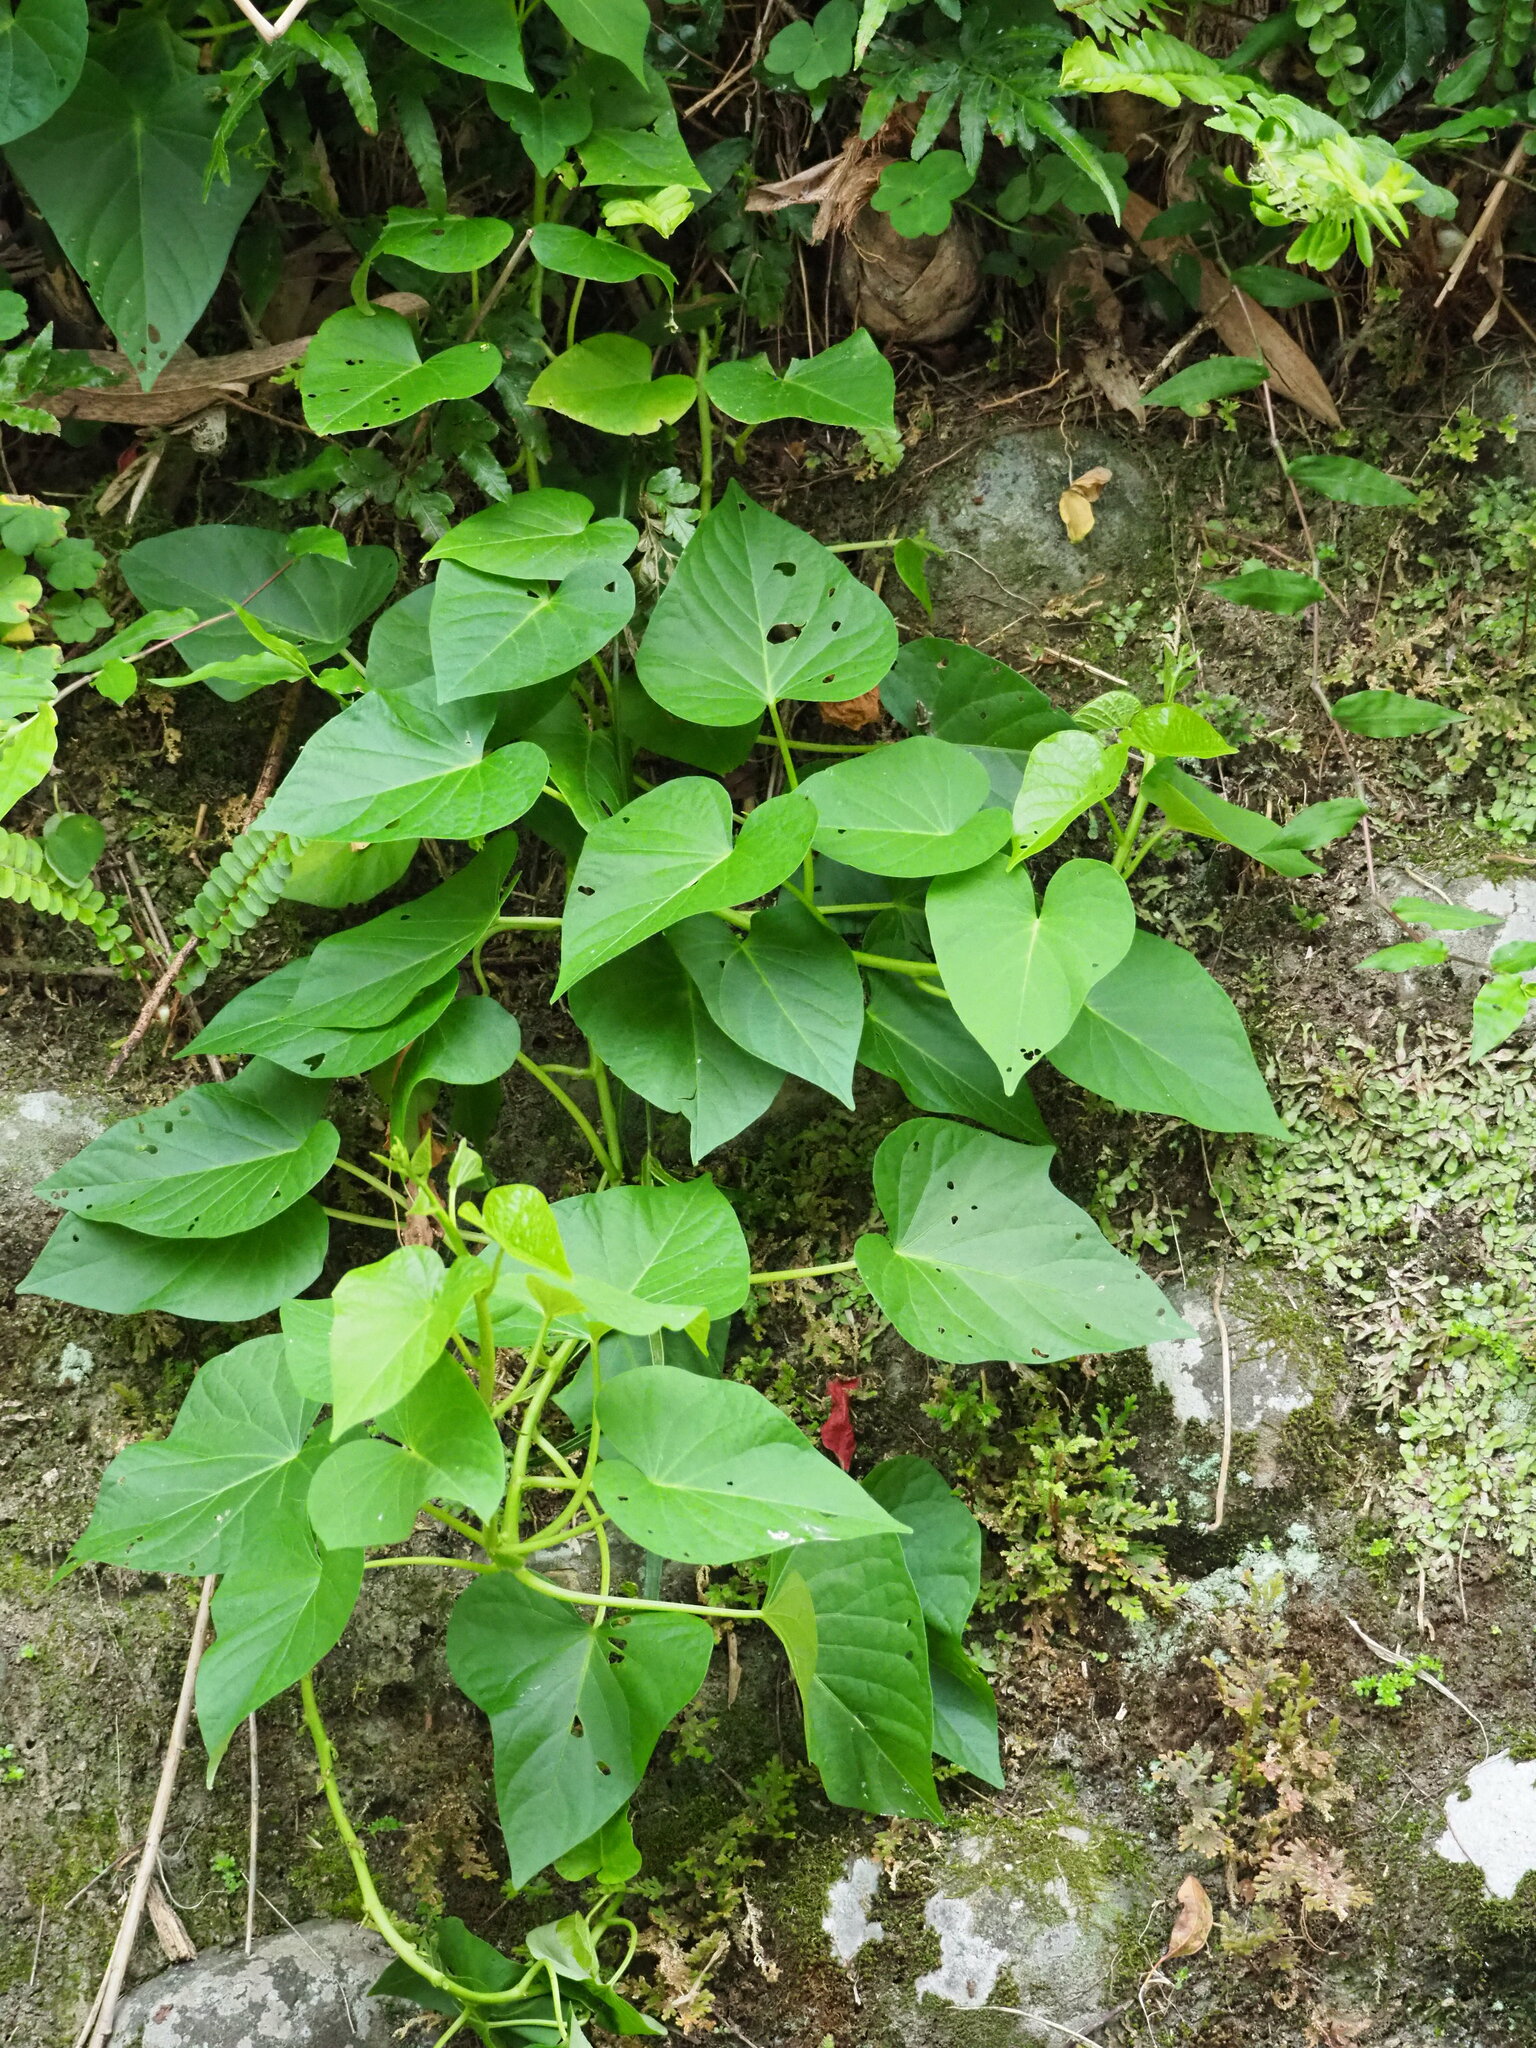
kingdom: Plantae
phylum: Tracheophyta
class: Magnoliopsida
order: Solanales
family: Convolvulaceae
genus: Ipomoea
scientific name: Ipomoea batatas
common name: Sweet-potato
